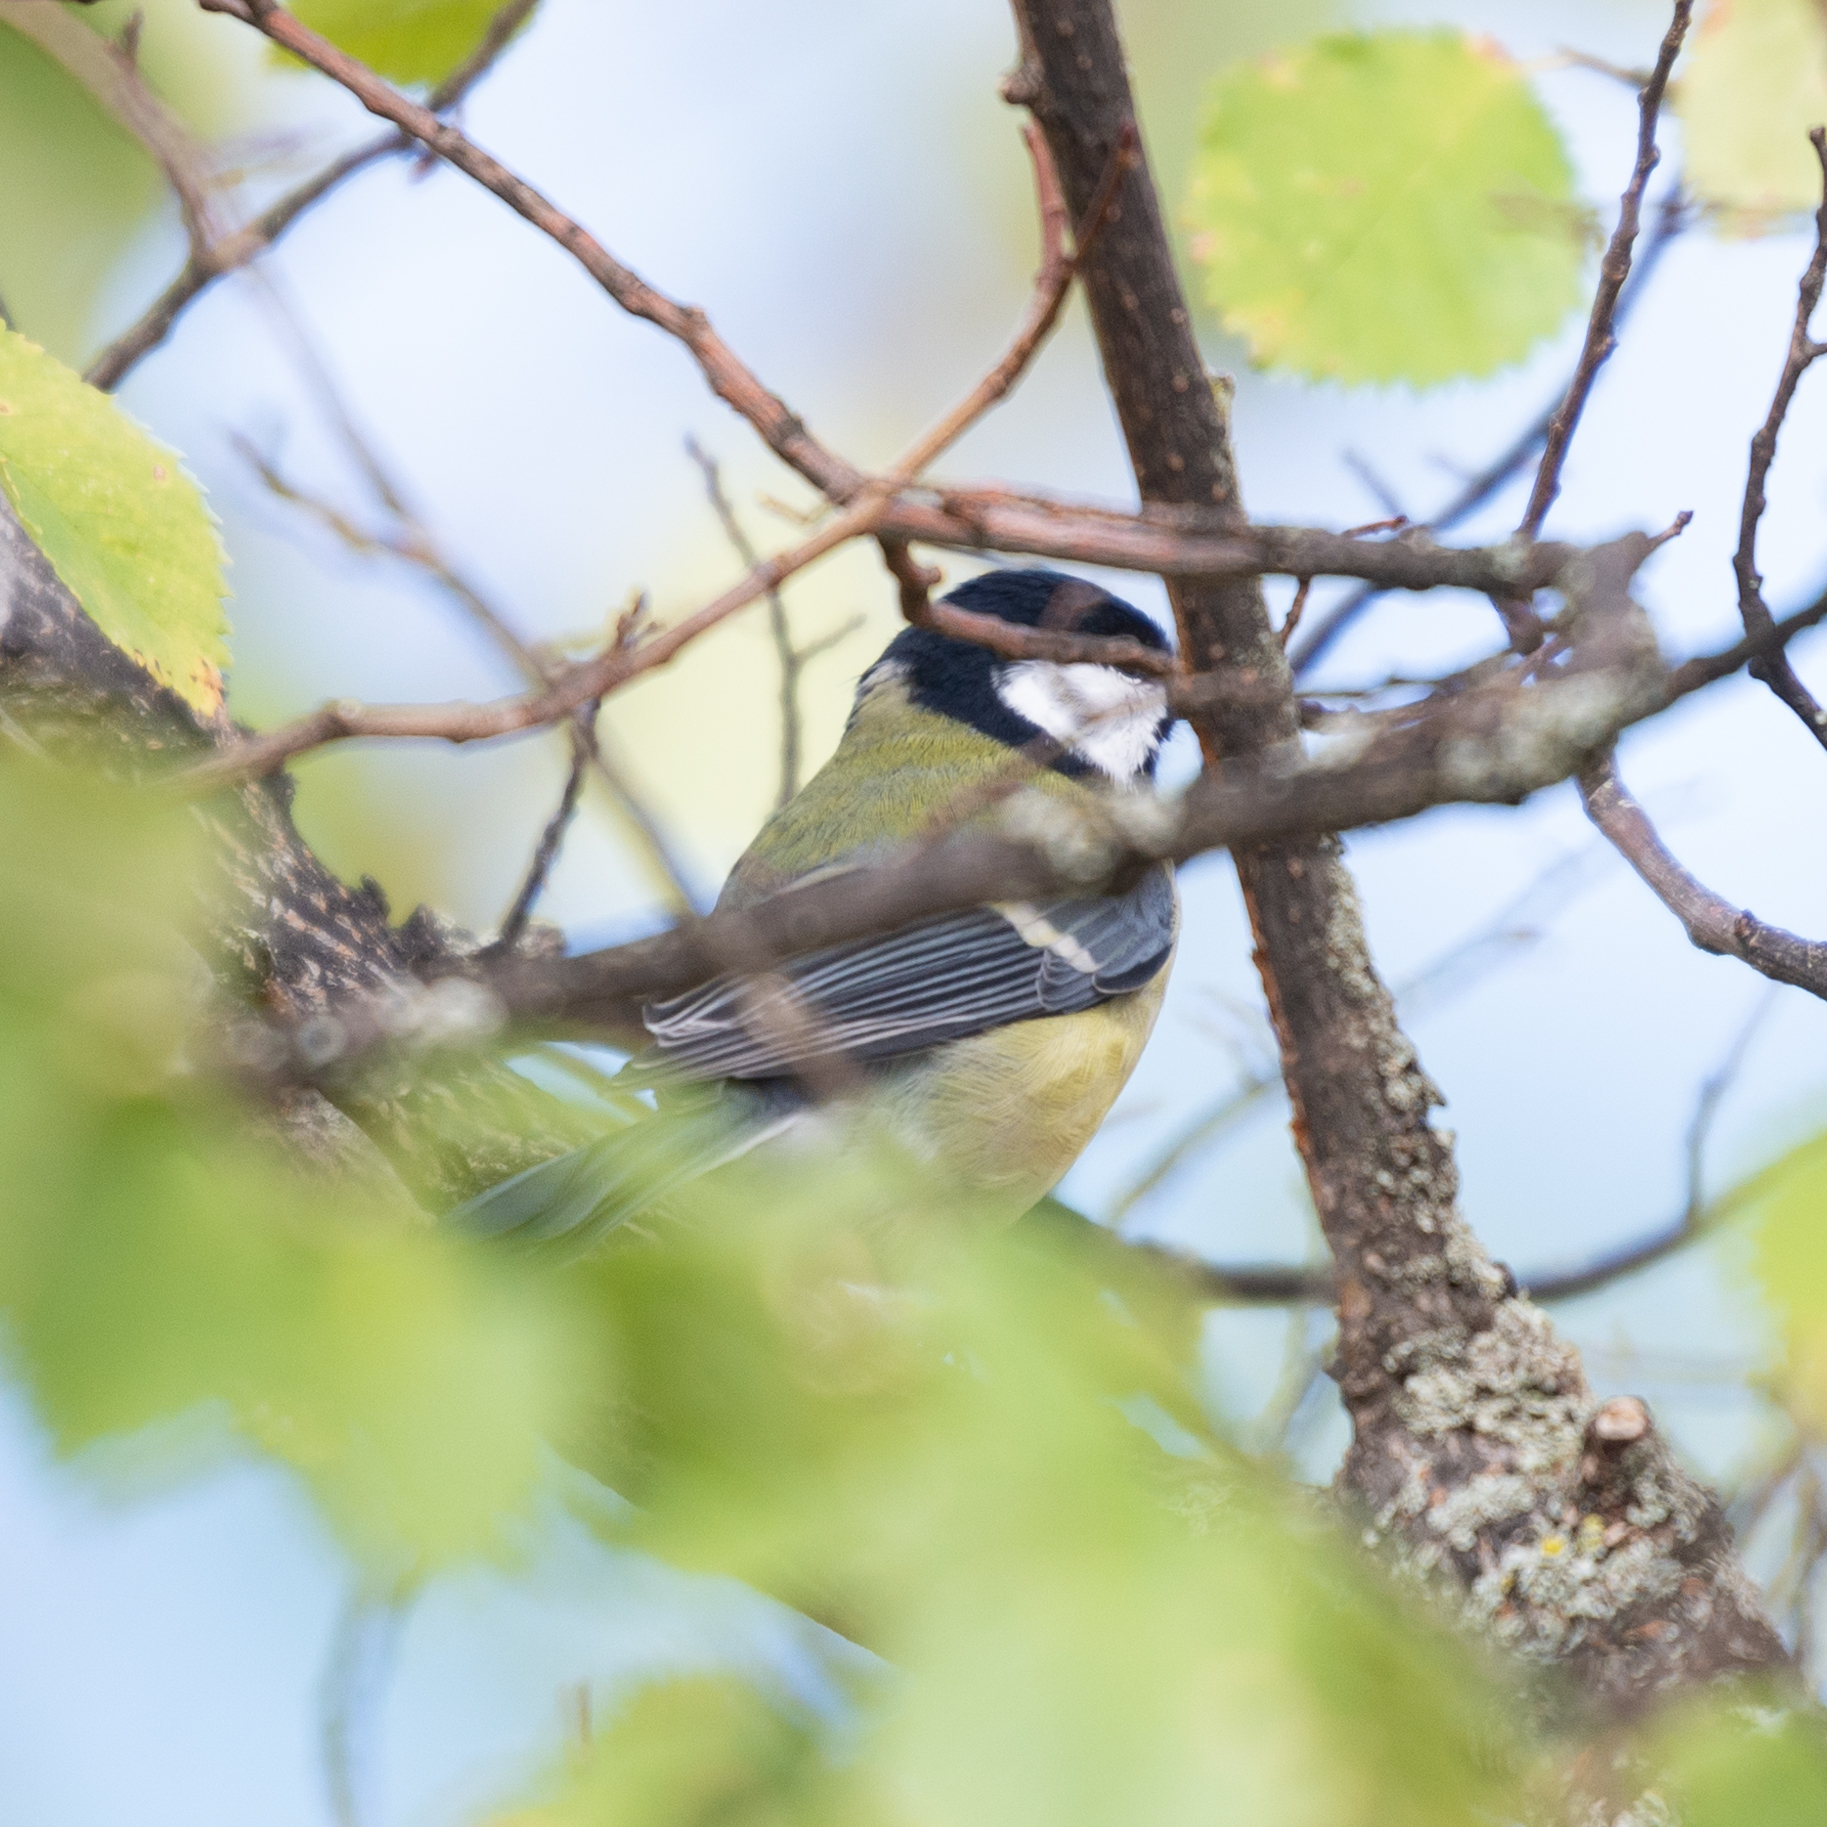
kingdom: Animalia
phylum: Chordata
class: Aves
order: Passeriformes
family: Paridae
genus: Parus
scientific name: Parus major
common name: Great tit
